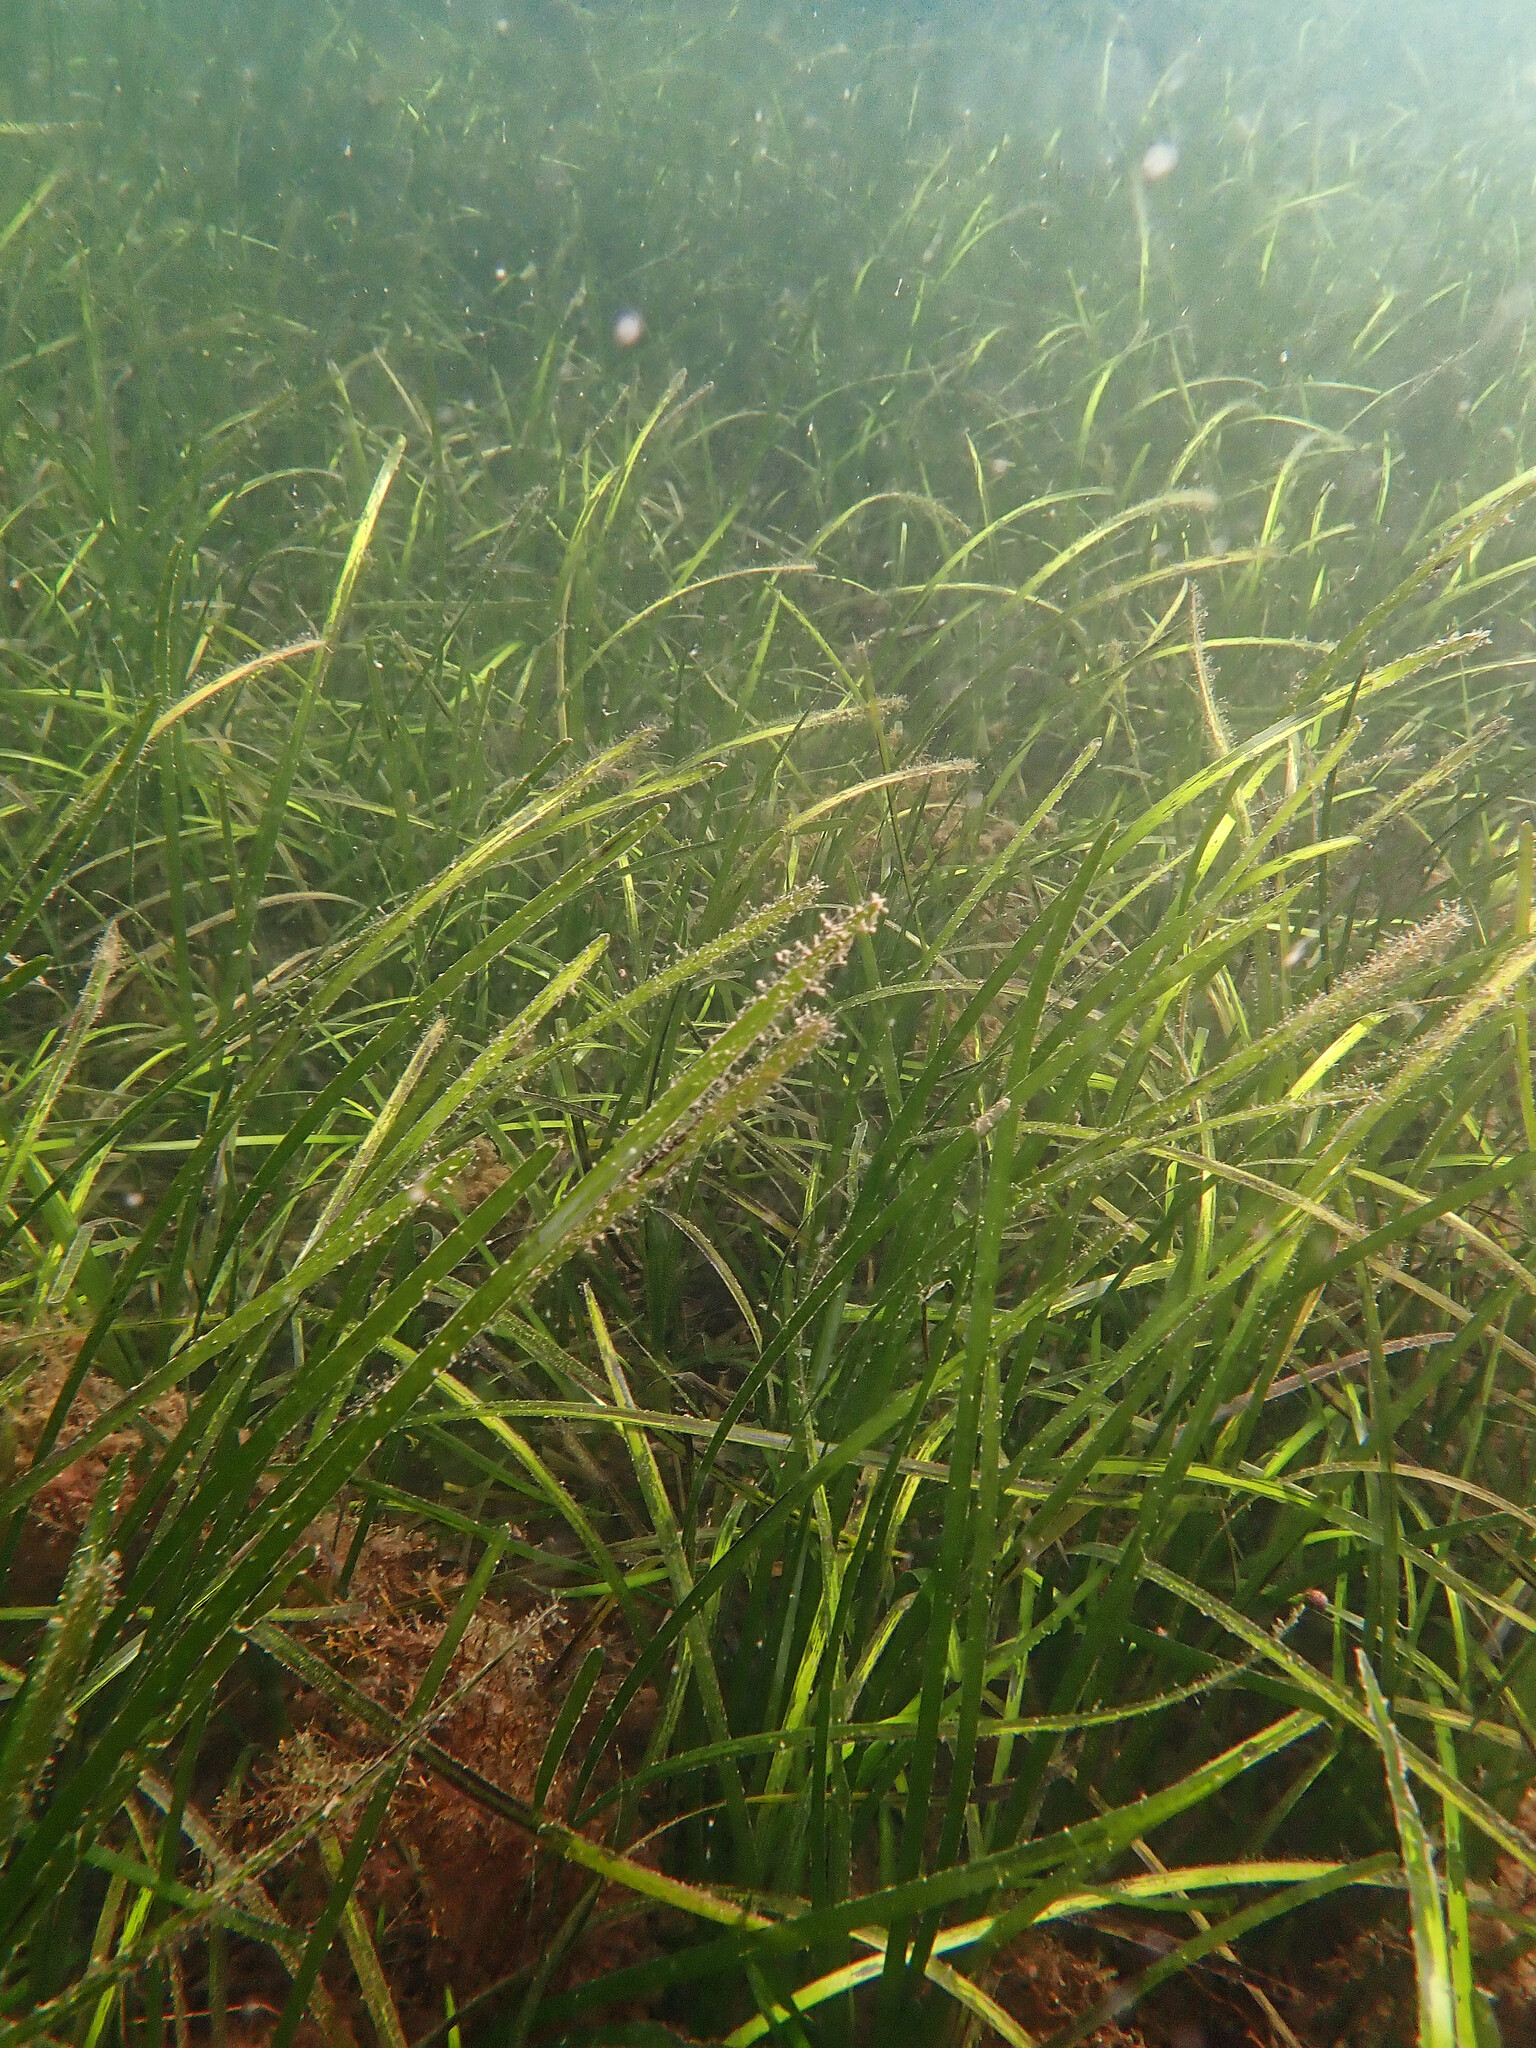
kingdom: Plantae
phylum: Tracheophyta
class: Liliopsida
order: Alismatales
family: Zosteraceae
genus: Zostera
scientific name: Zostera marina
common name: Eelgrass
